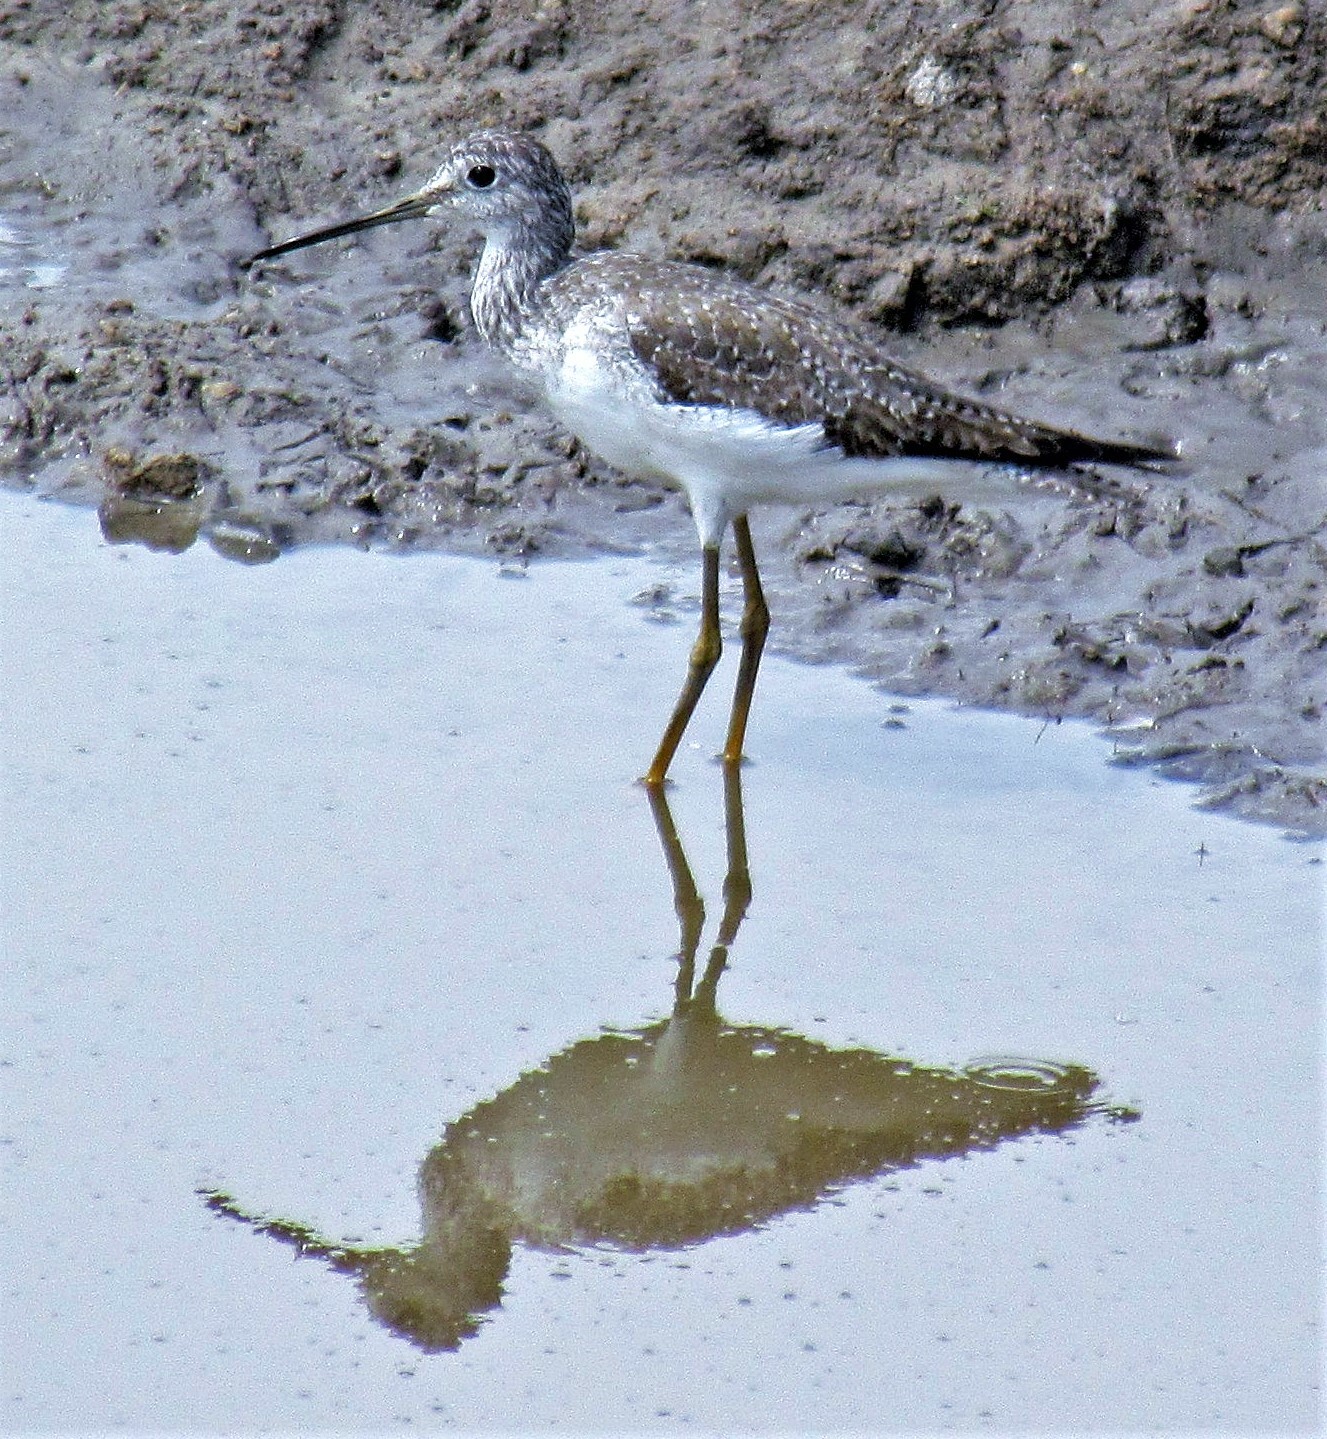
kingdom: Animalia
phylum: Chordata
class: Aves
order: Charadriiformes
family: Scolopacidae
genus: Tringa
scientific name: Tringa melanoleuca
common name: Greater yellowlegs
